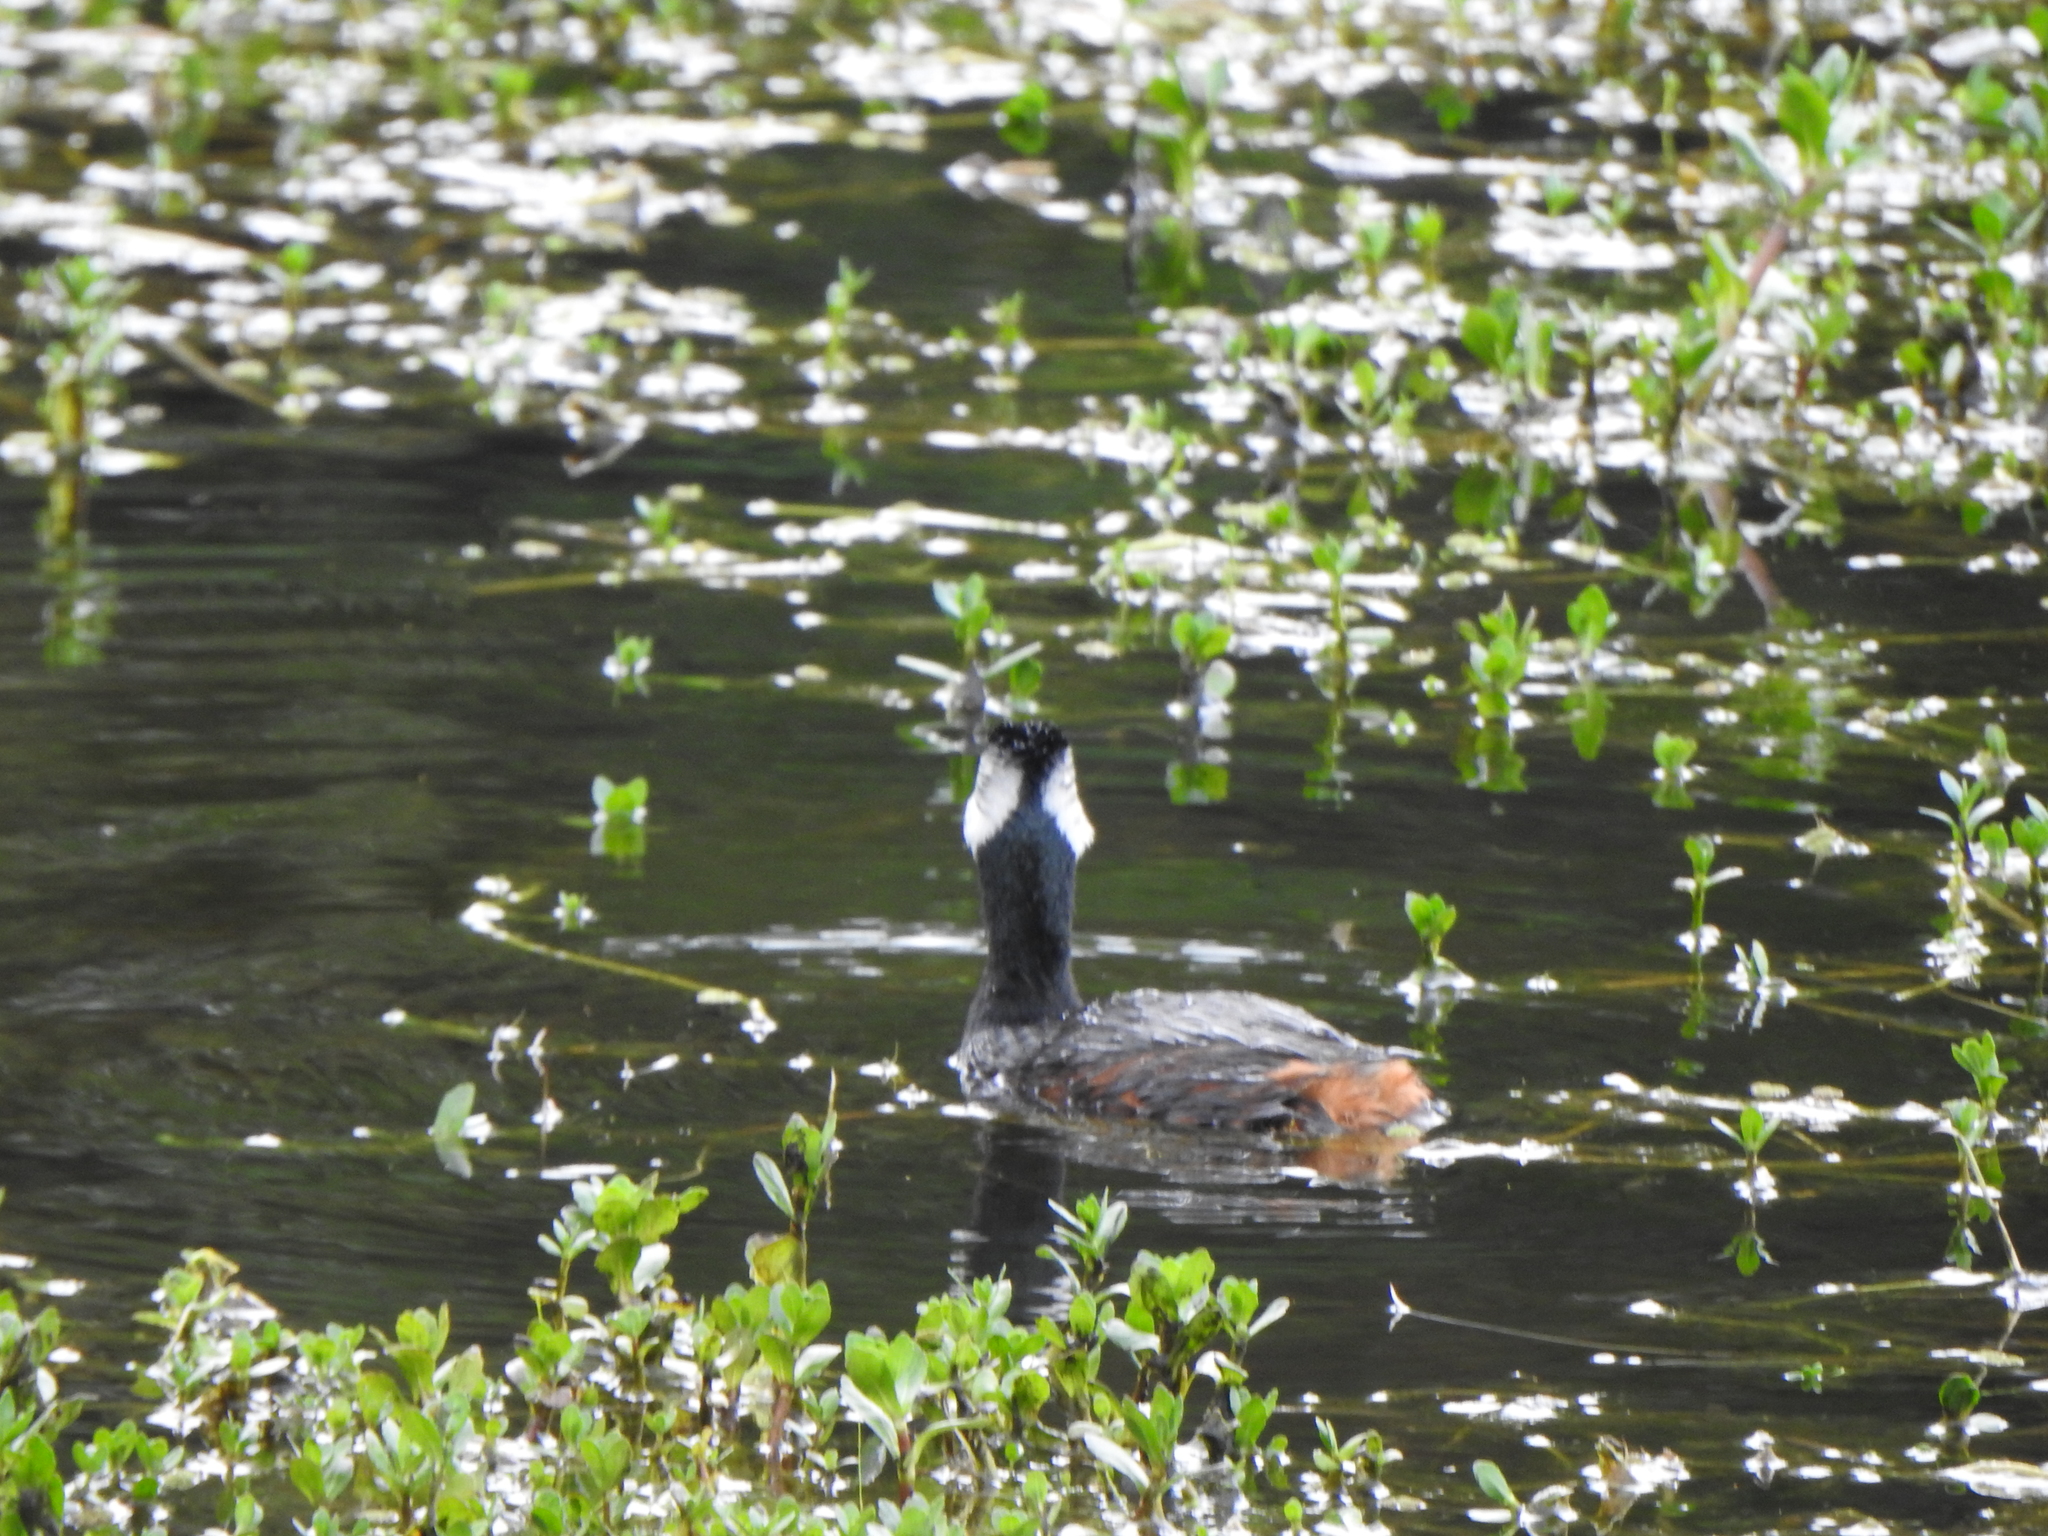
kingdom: Animalia
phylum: Chordata
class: Aves
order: Podicipediformes
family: Podicipedidae
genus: Rollandia
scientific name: Rollandia rolland
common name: White-tufted grebe
